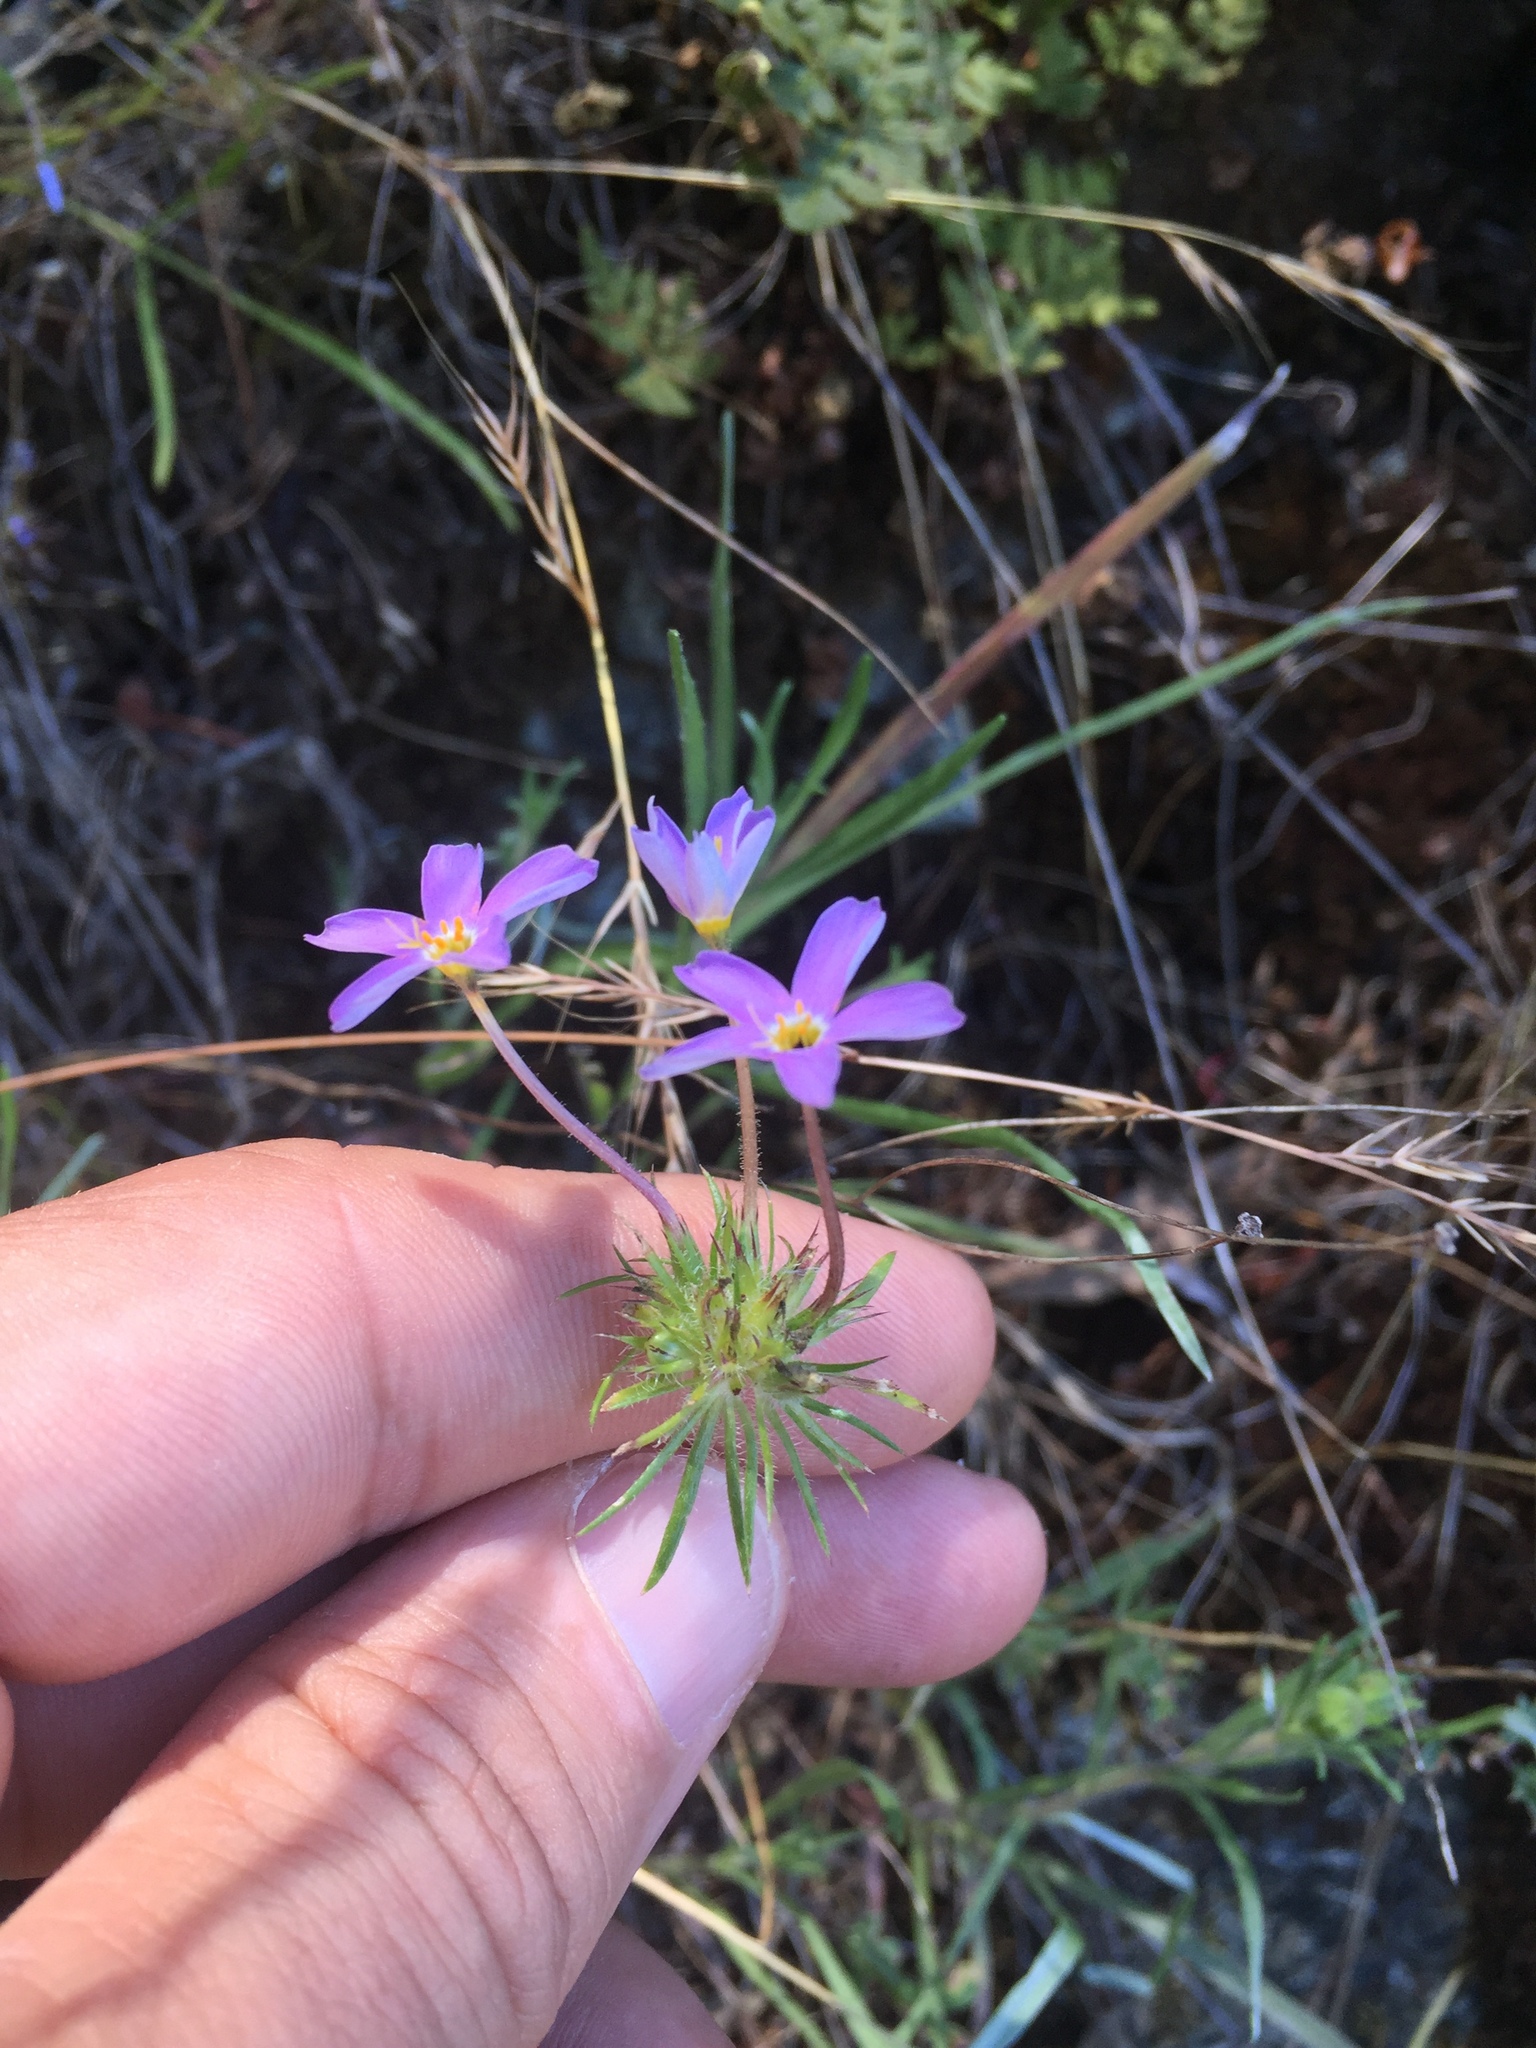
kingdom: Plantae
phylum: Tracheophyta
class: Magnoliopsida
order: Ericales
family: Polemoniaceae
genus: Leptosiphon
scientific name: Leptosiphon androsaceus
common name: False babystars
